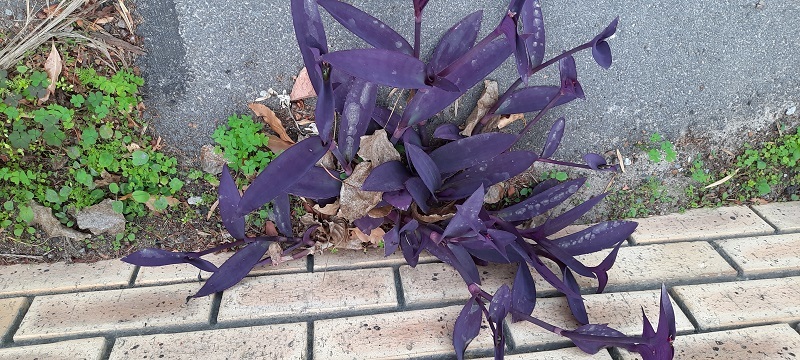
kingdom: Plantae
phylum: Tracheophyta
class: Liliopsida
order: Commelinales
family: Commelinaceae
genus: Tradescantia
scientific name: Tradescantia pallida
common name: Purpleheart
